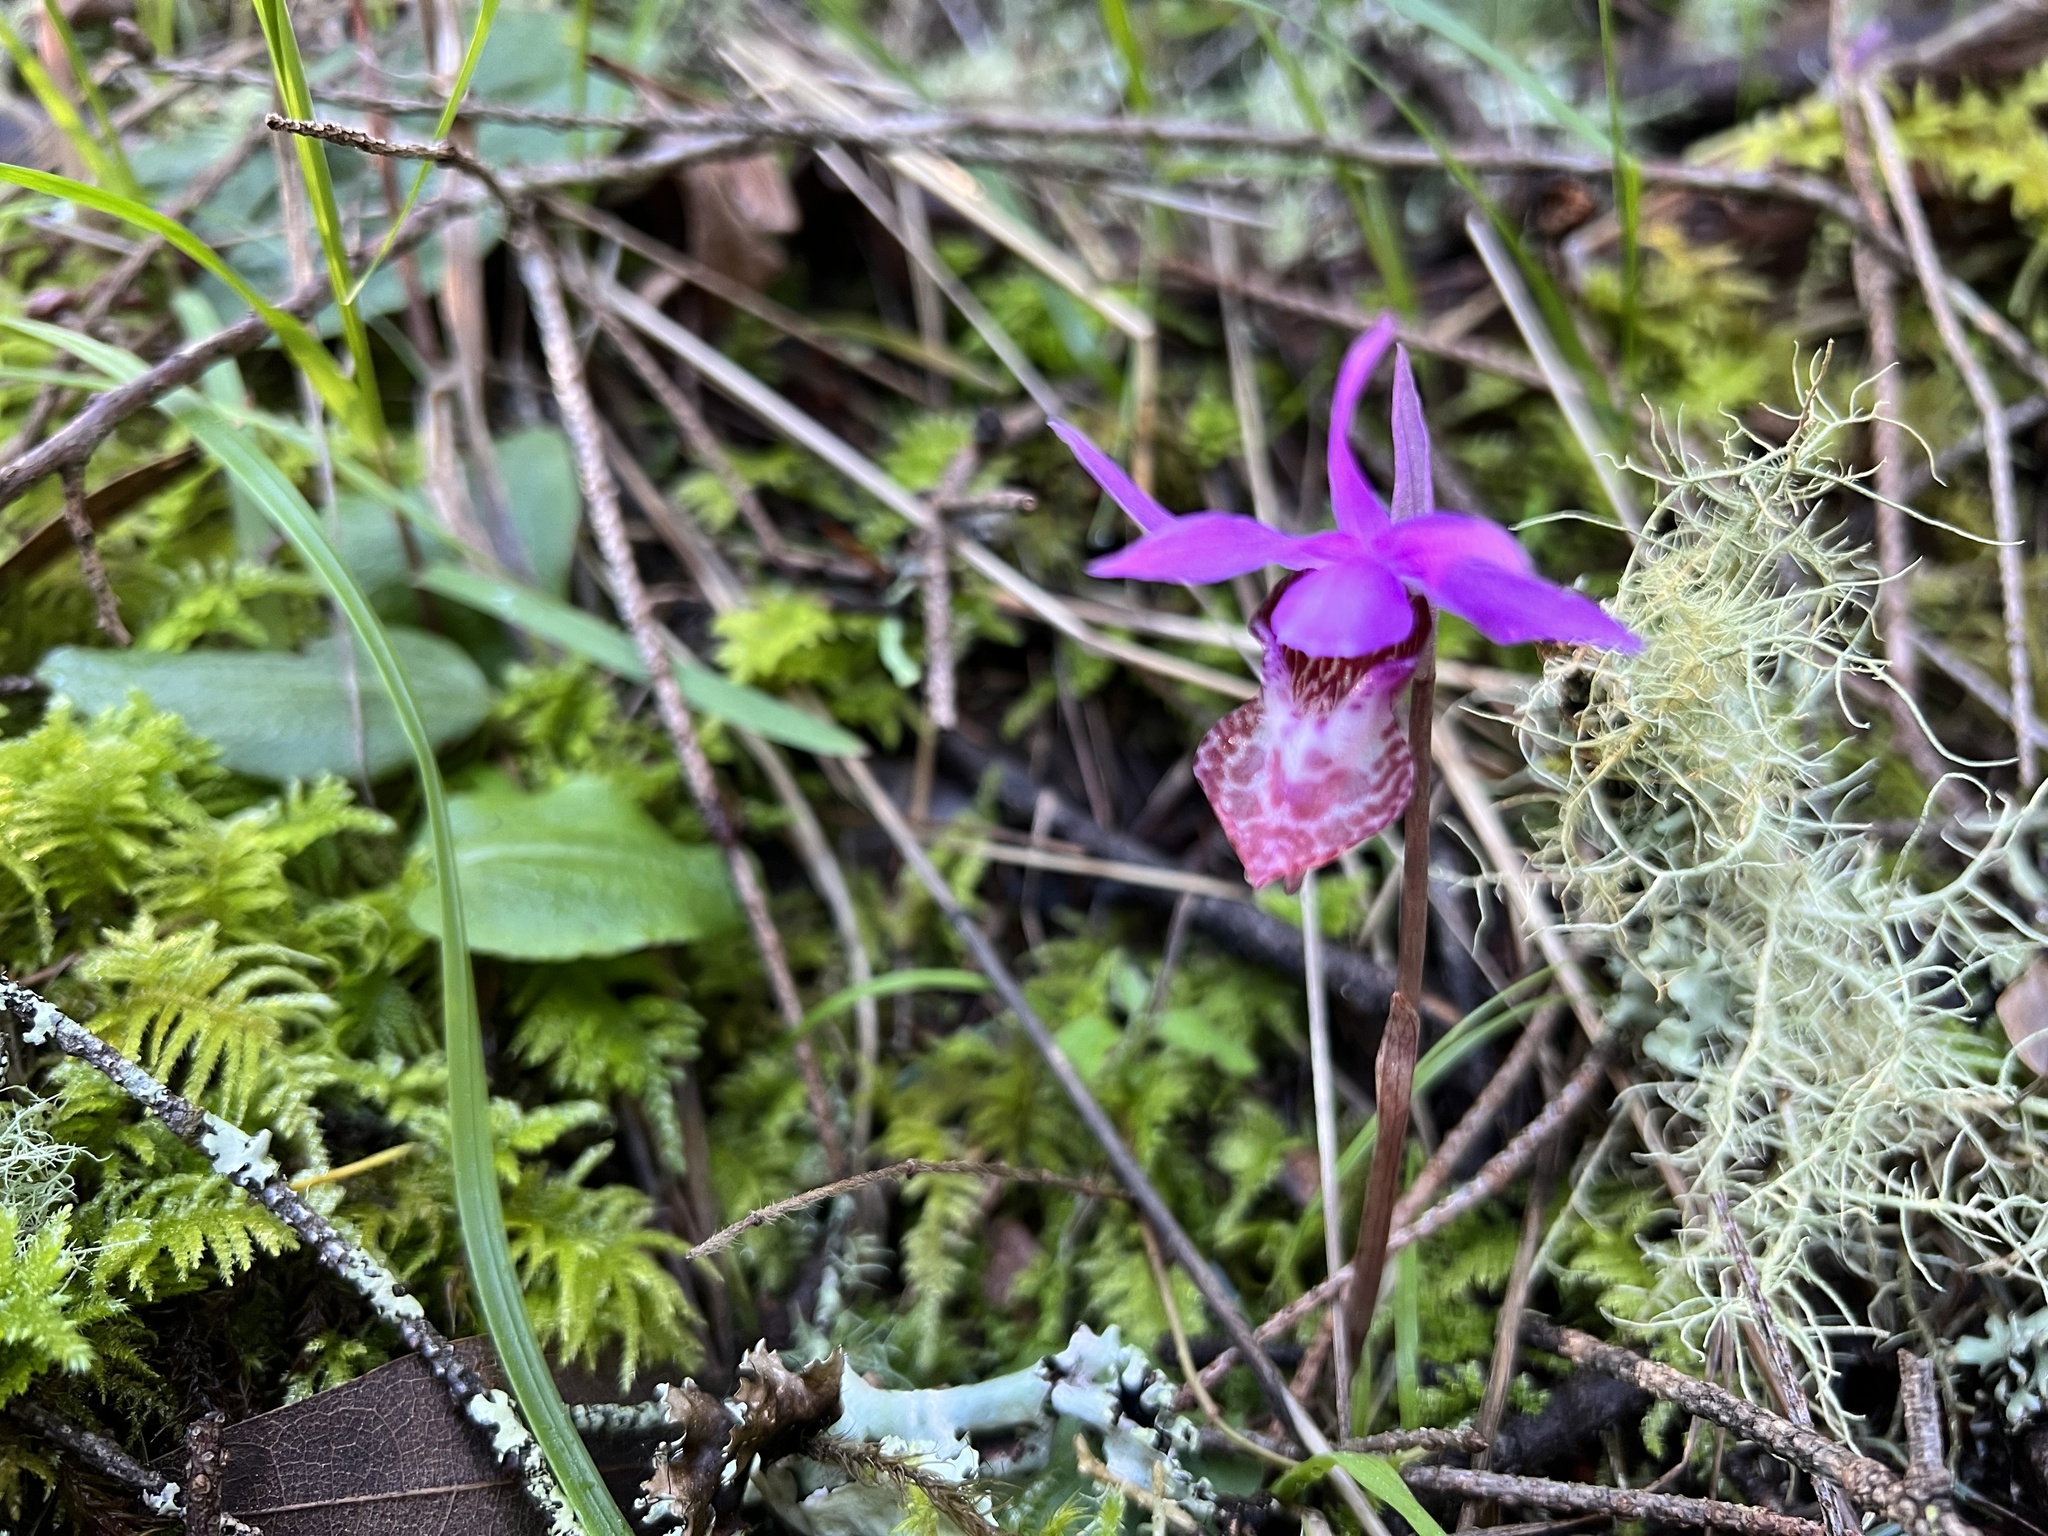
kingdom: Plantae
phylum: Tracheophyta
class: Liliopsida
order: Asparagales
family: Orchidaceae
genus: Calypso
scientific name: Calypso bulbosa
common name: Calypso
